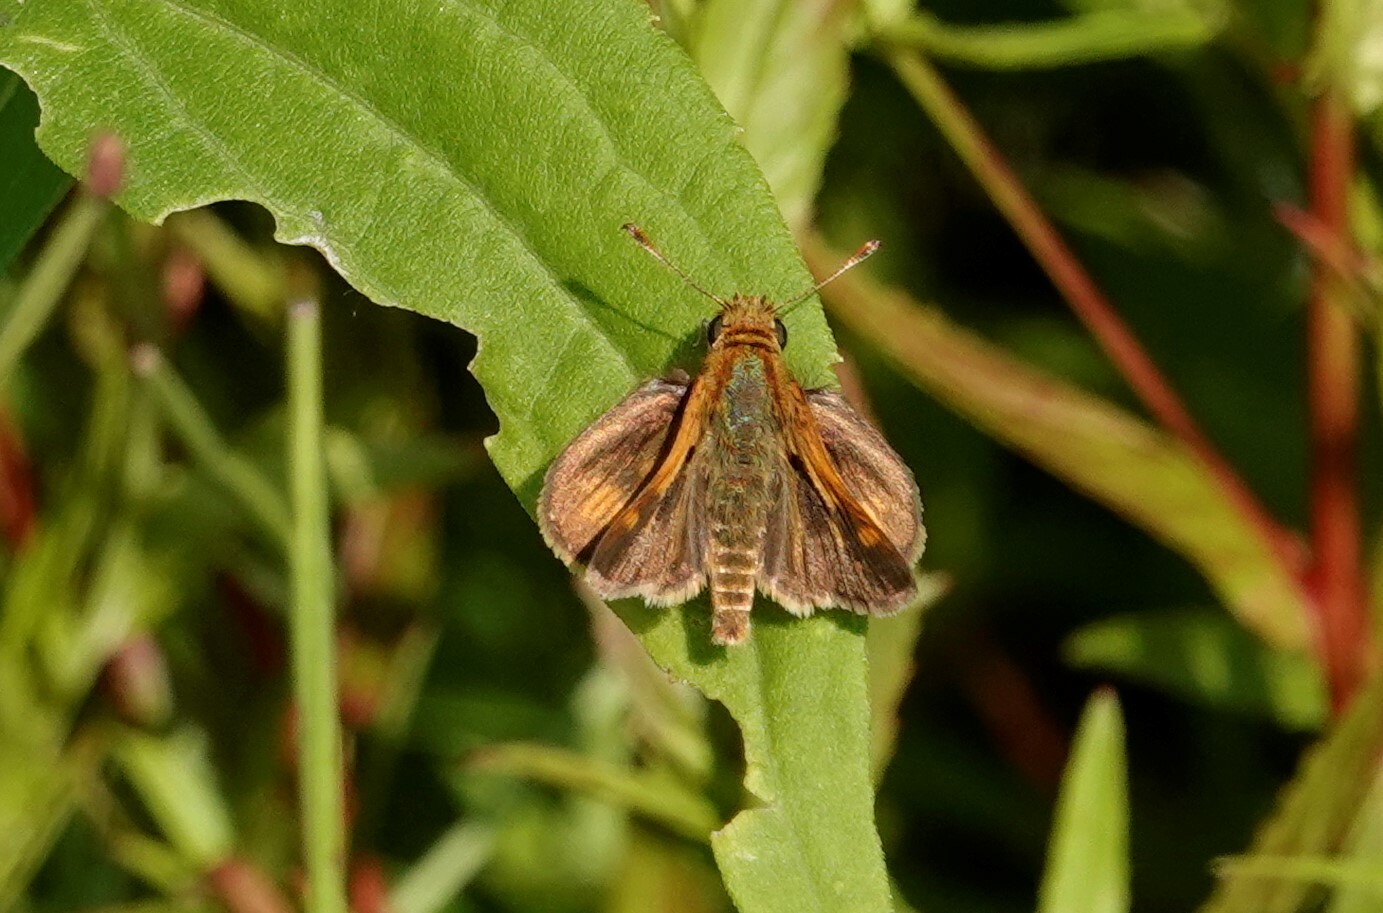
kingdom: Animalia
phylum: Arthropoda
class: Insecta
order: Lepidoptera
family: Hesperiidae
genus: Polites
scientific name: Polites coras
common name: Peck's skipper
